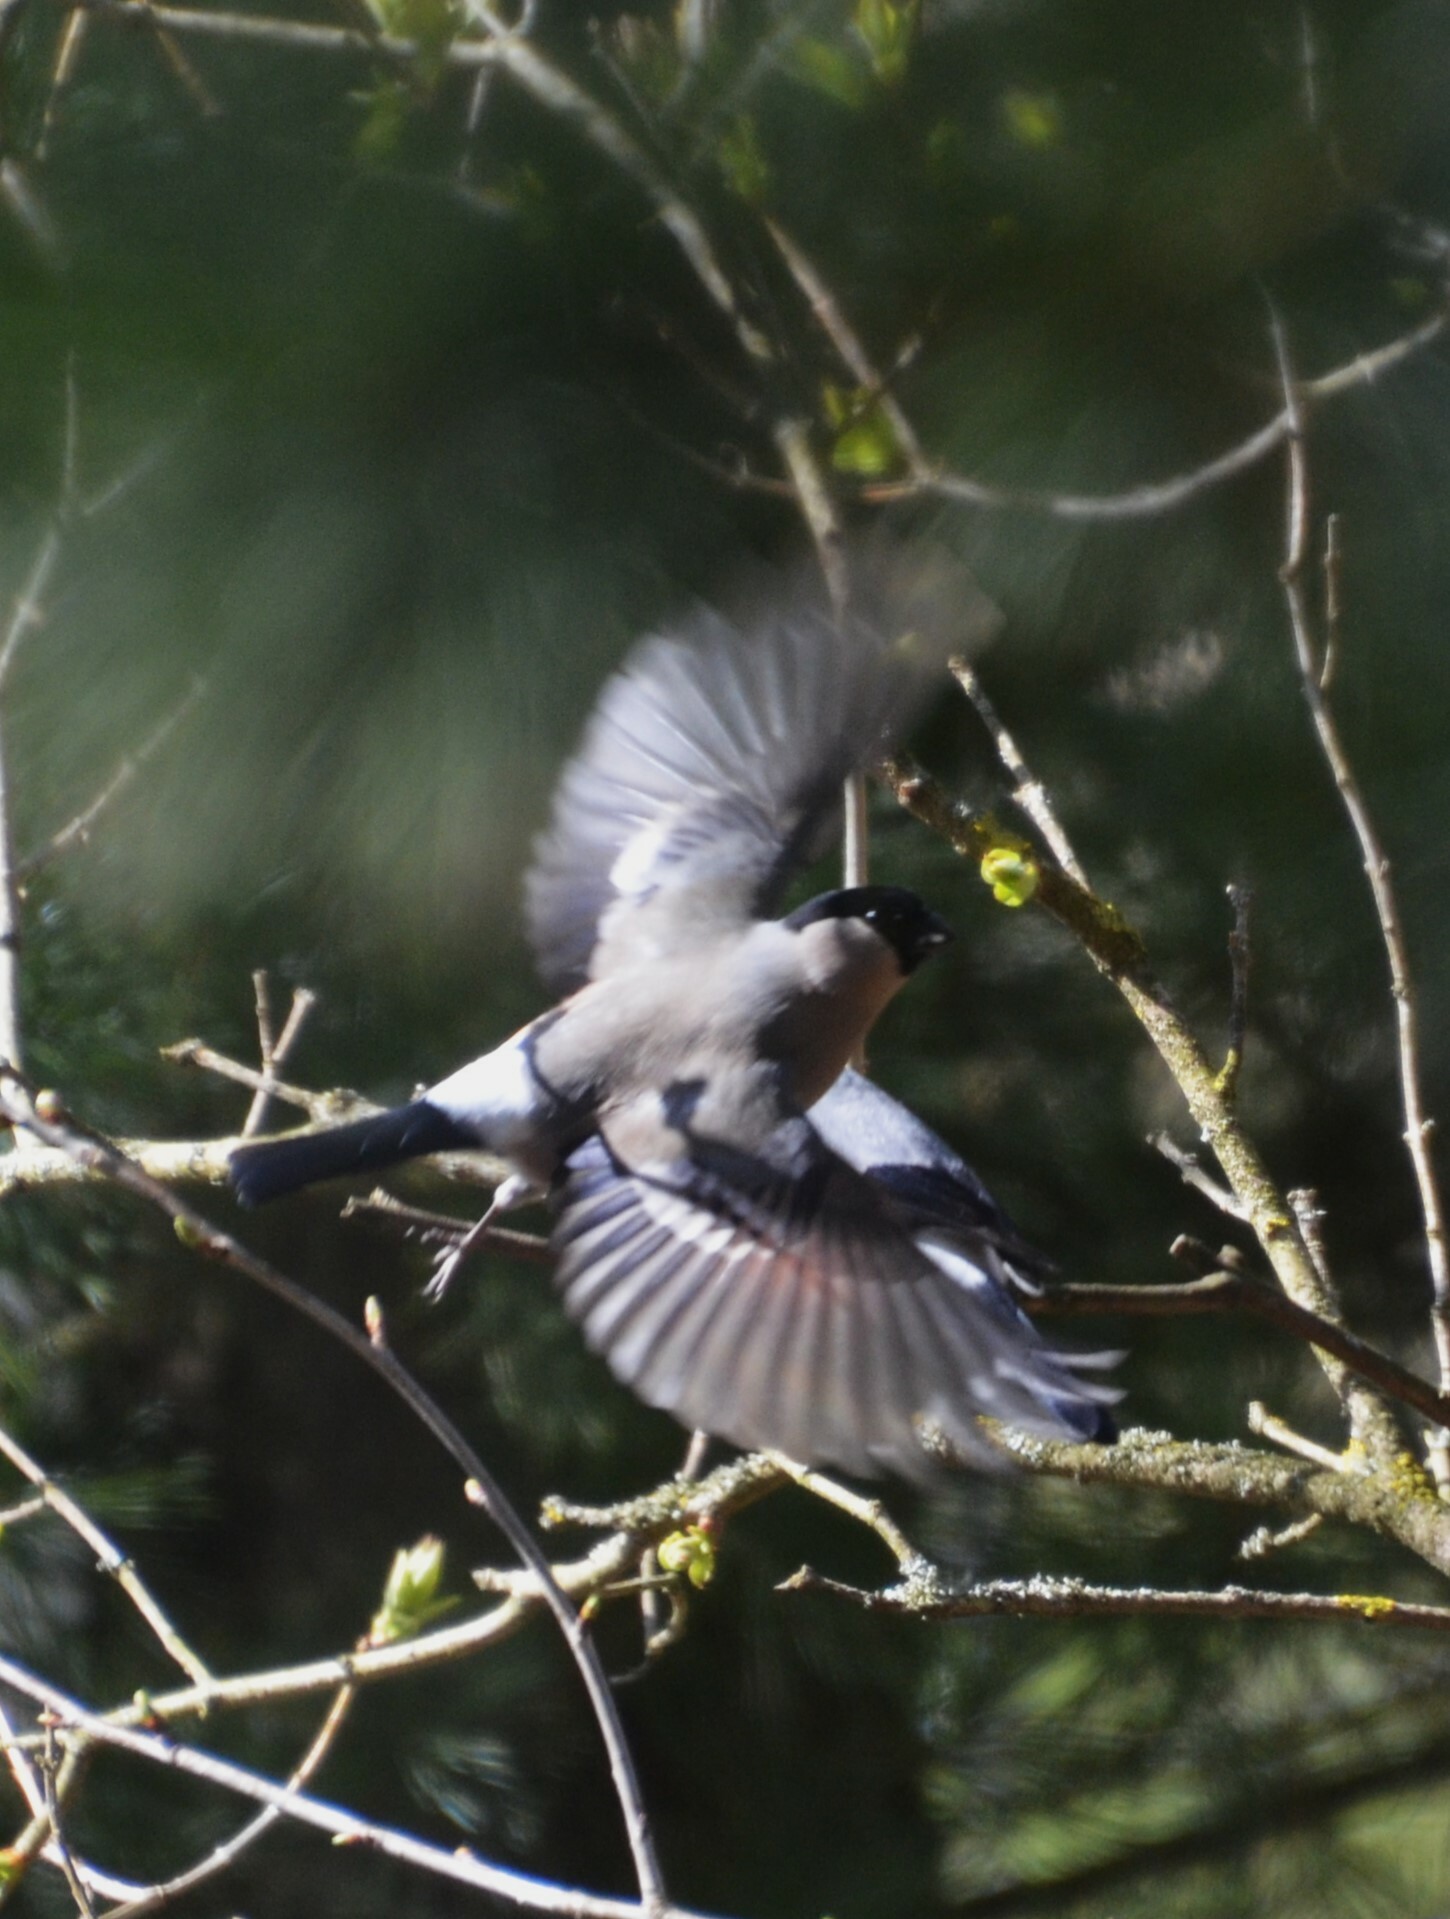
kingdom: Animalia
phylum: Chordata
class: Aves
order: Passeriformes
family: Fringillidae
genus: Pyrrhula
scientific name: Pyrrhula pyrrhula
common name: Eurasian bullfinch
